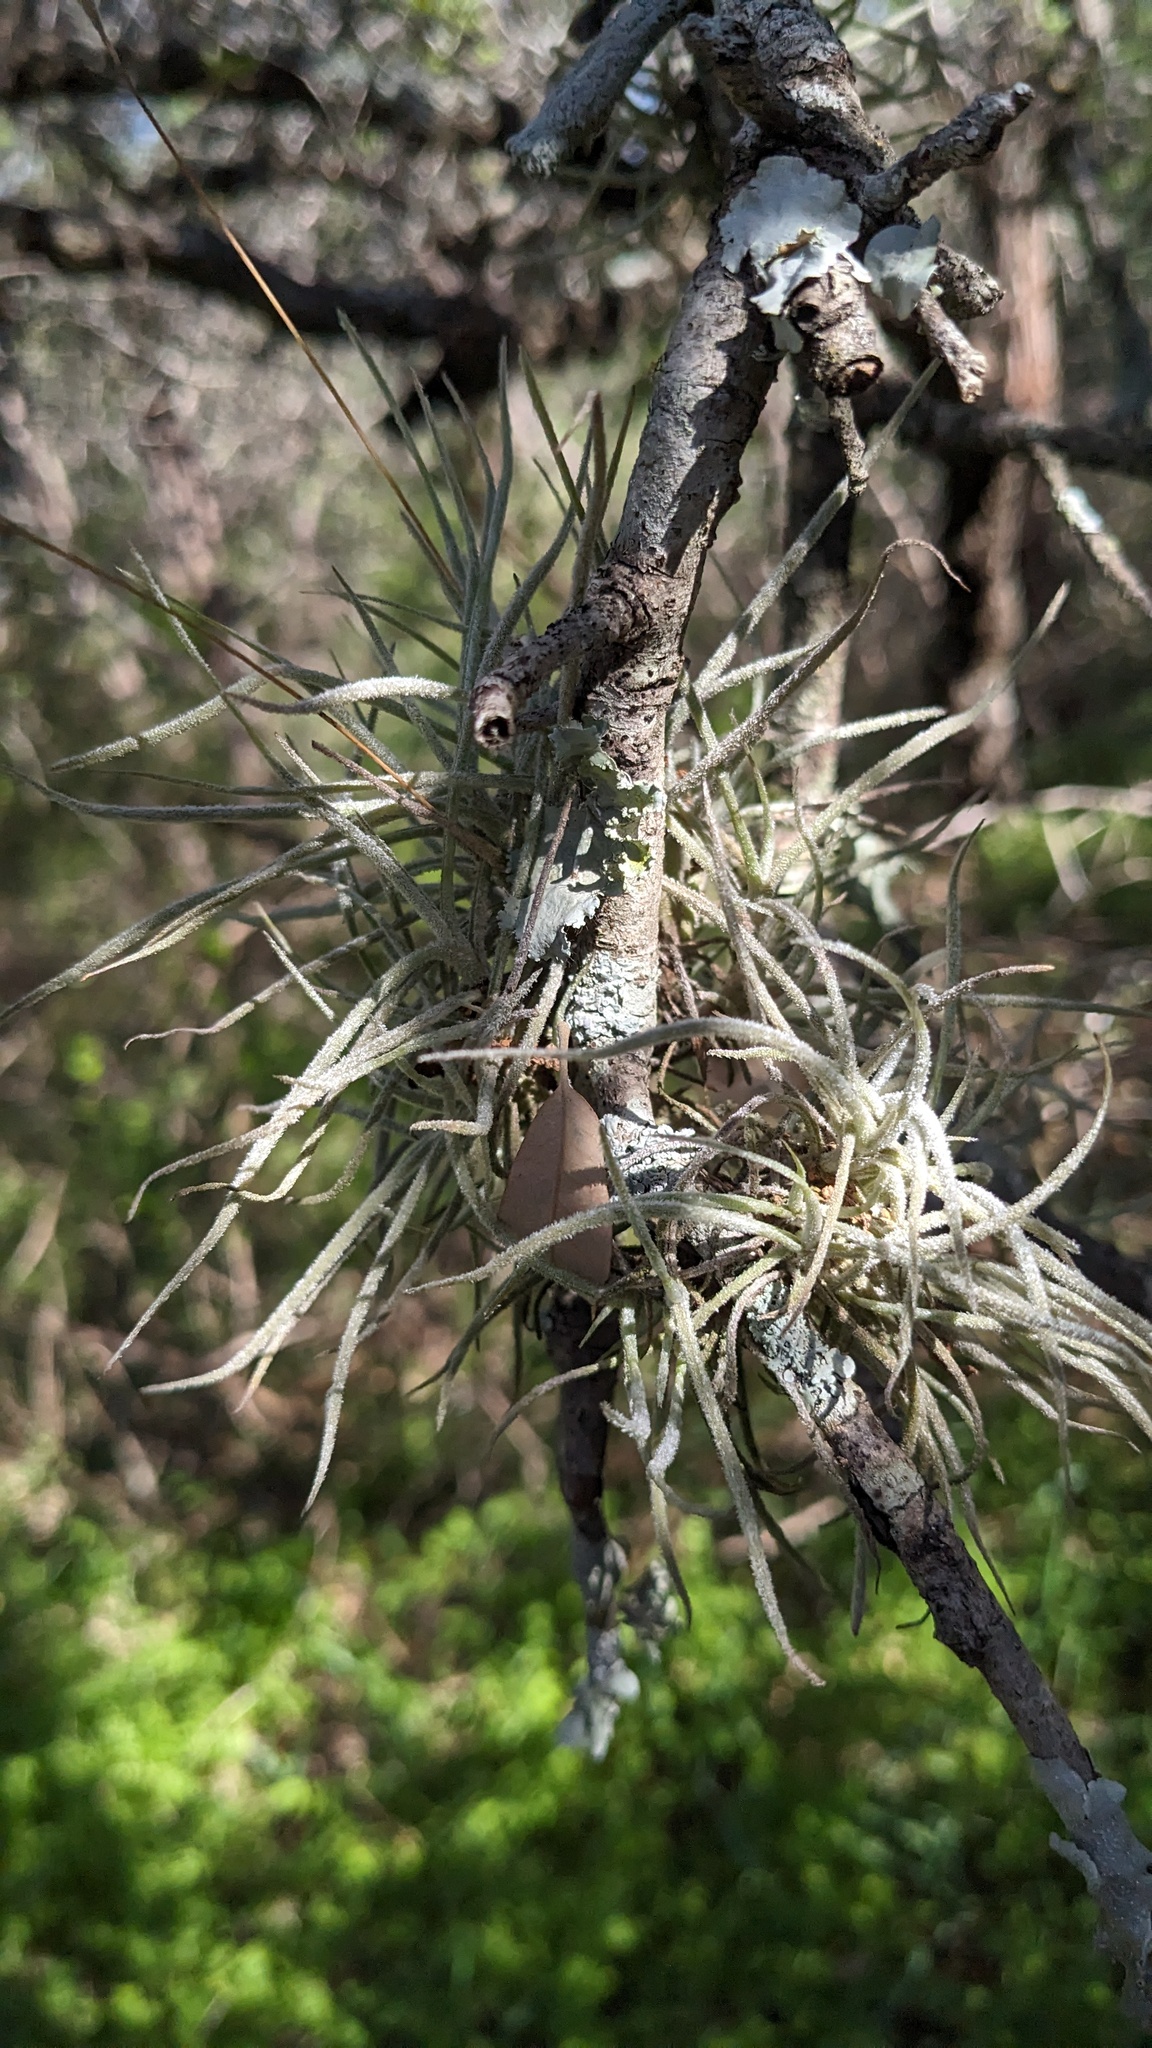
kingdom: Plantae
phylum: Tracheophyta
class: Liliopsida
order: Poales
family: Bromeliaceae
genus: Tillandsia
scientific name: Tillandsia recurvata
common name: Small ballmoss
